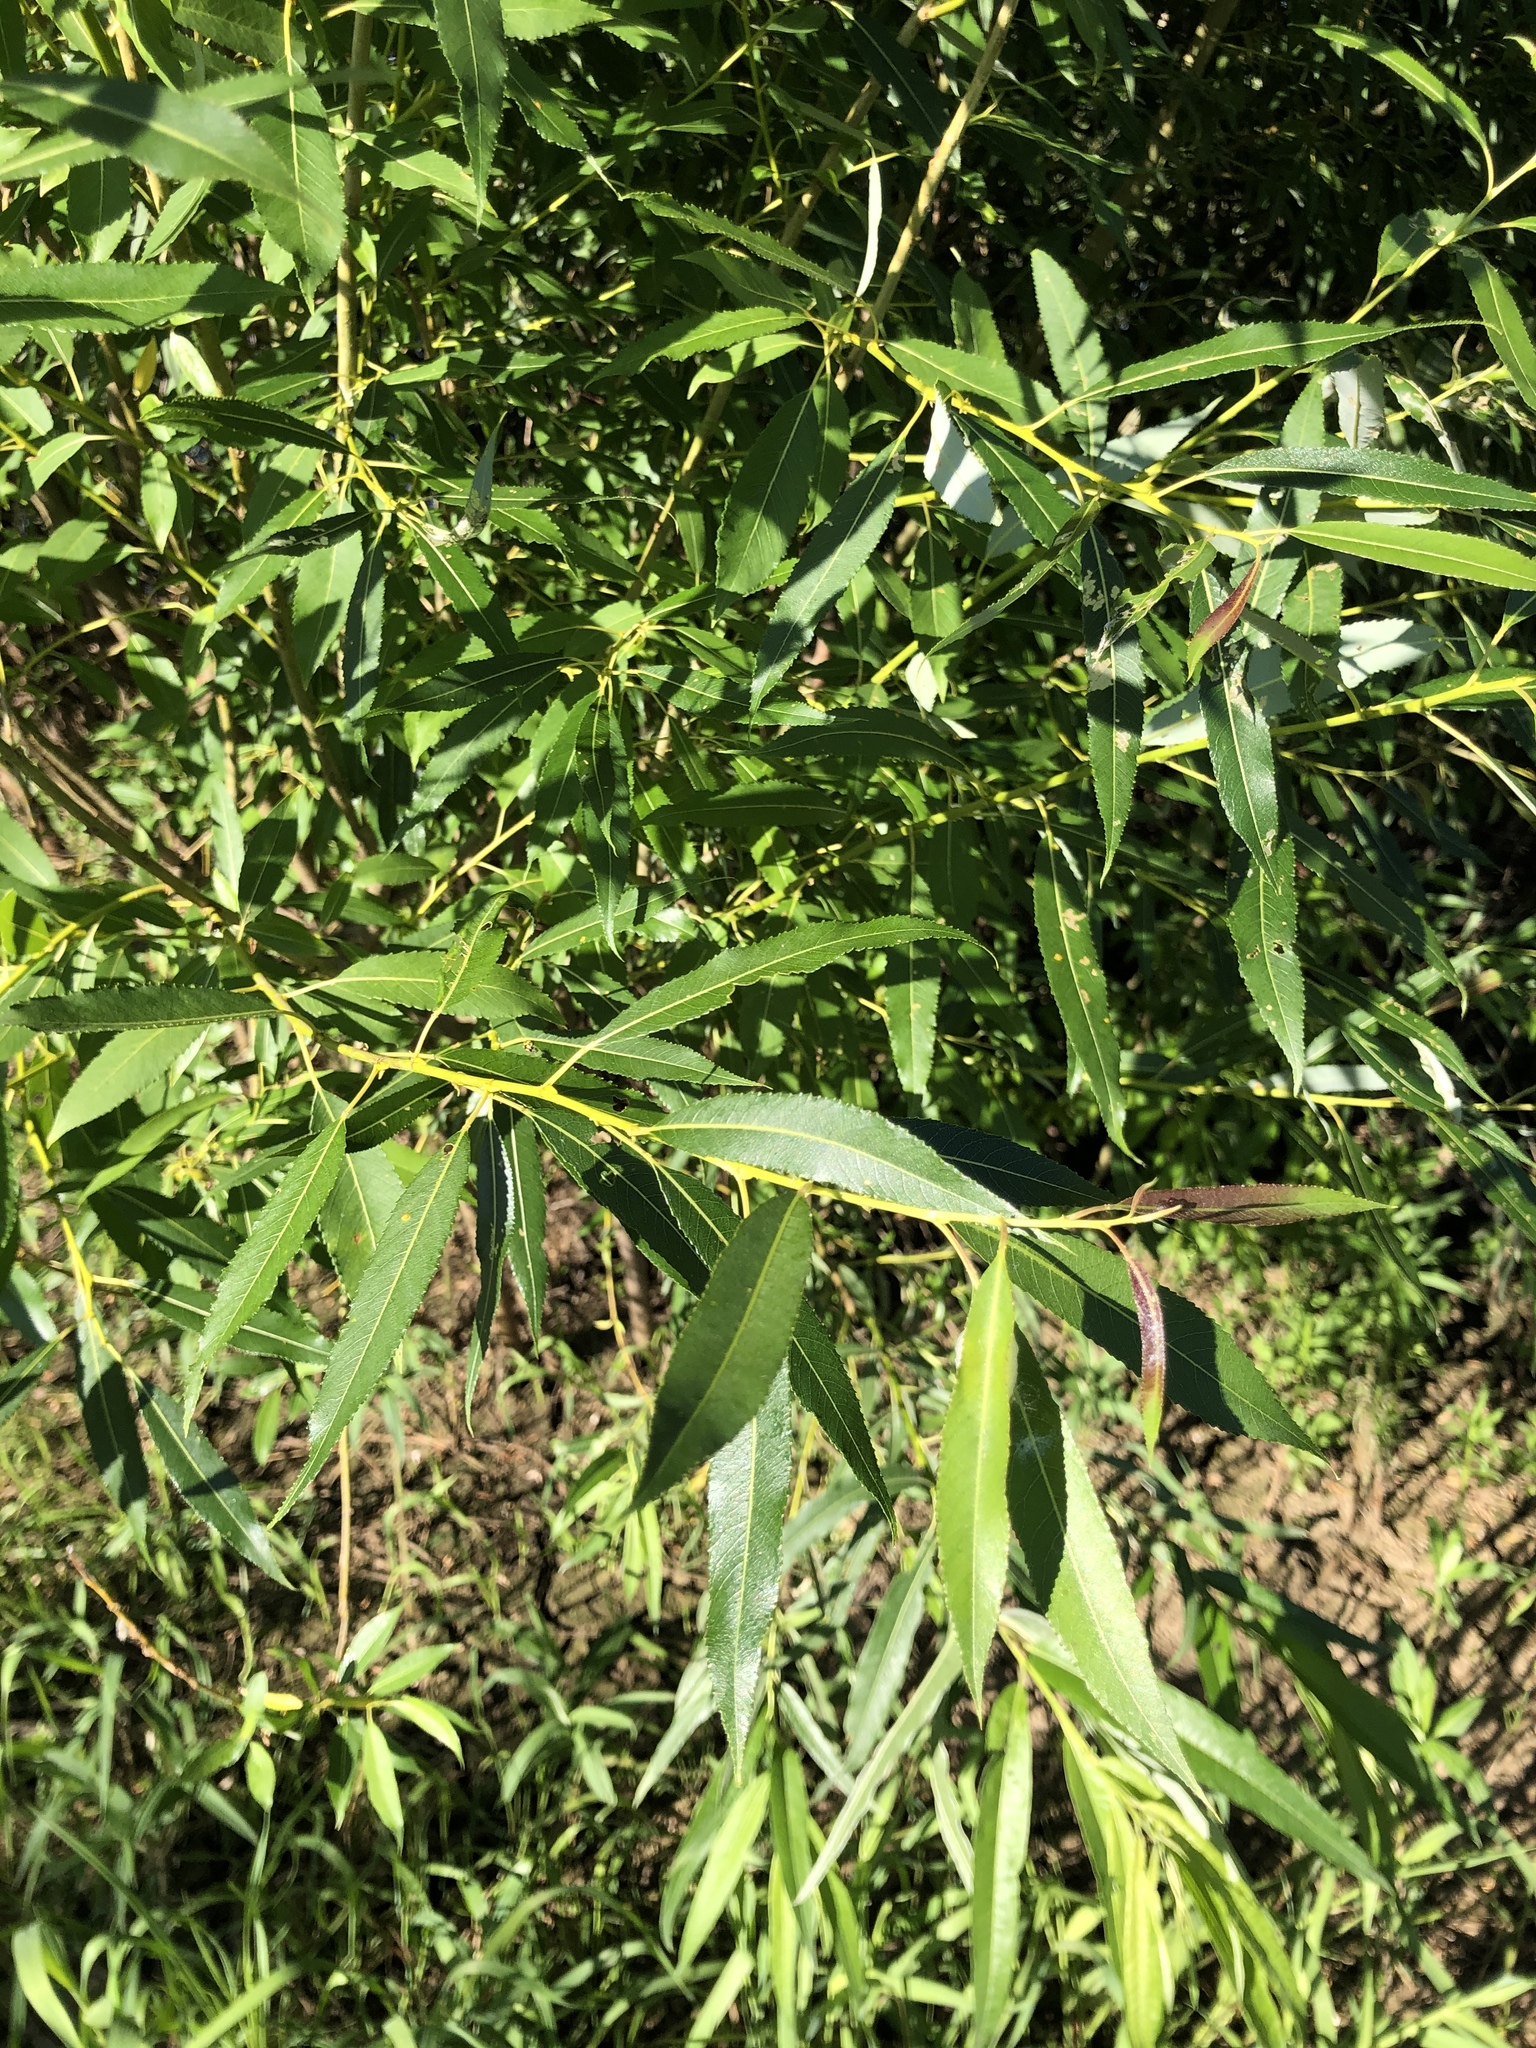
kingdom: Plantae
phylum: Tracheophyta
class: Magnoliopsida
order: Malpighiales
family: Salicaceae
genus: Salix
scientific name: Salix triandra
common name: Almond willow
